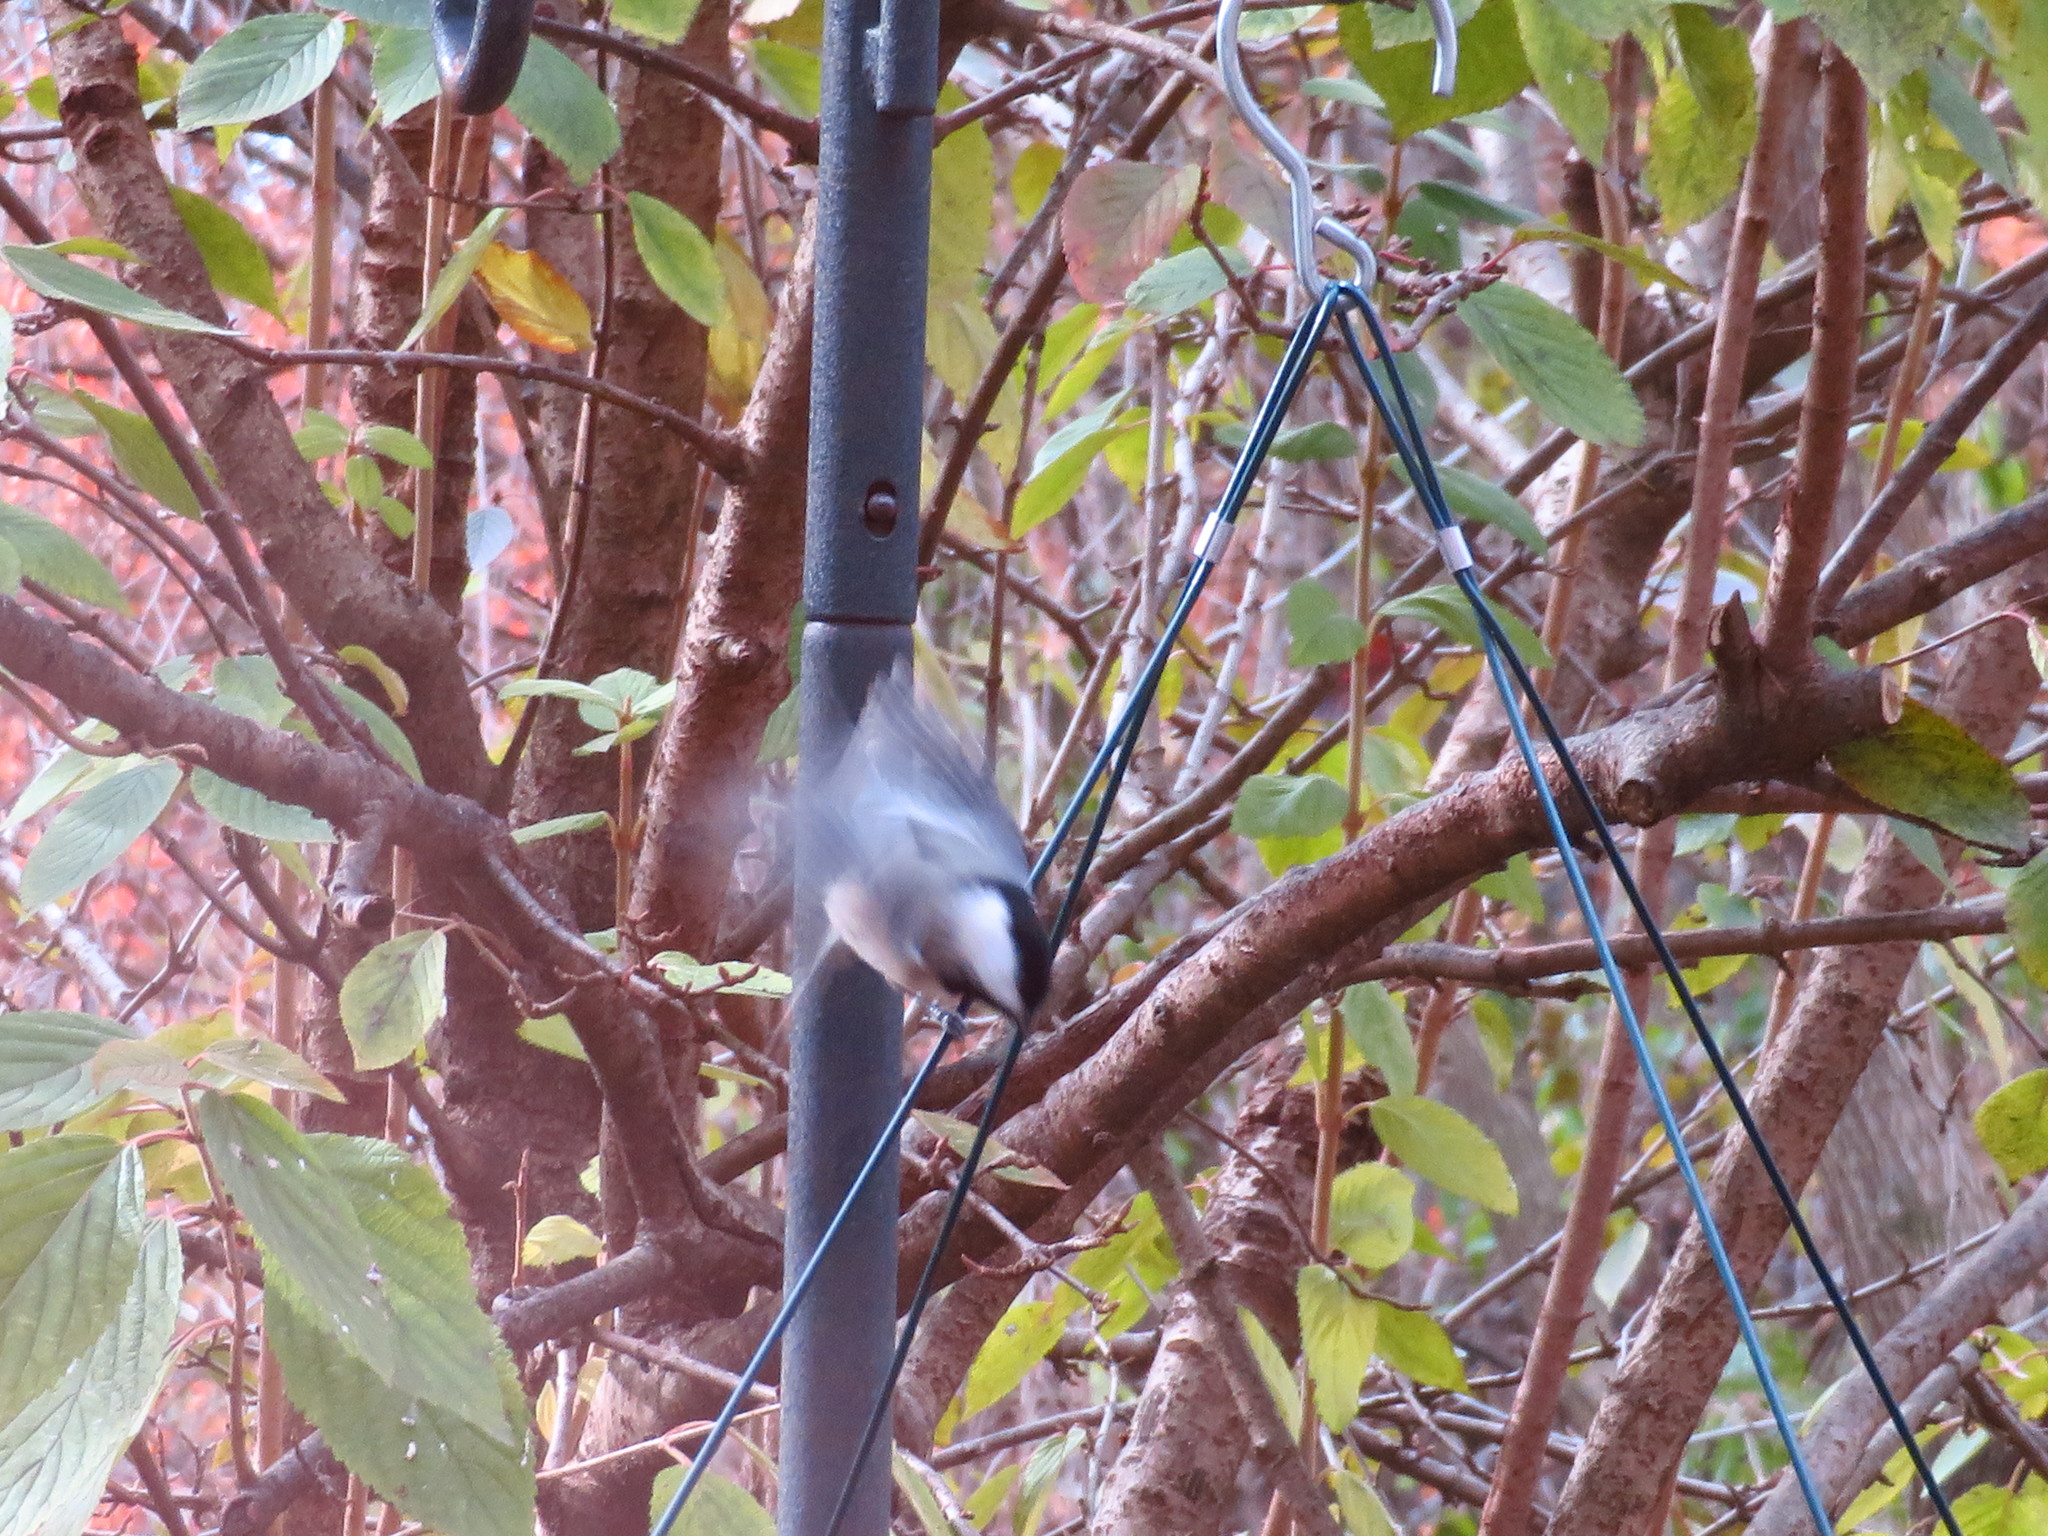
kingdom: Animalia
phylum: Chordata
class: Aves
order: Passeriformes
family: Paridae
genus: Poecile
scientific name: Poecile carolinensis
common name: Carolina chickadee
